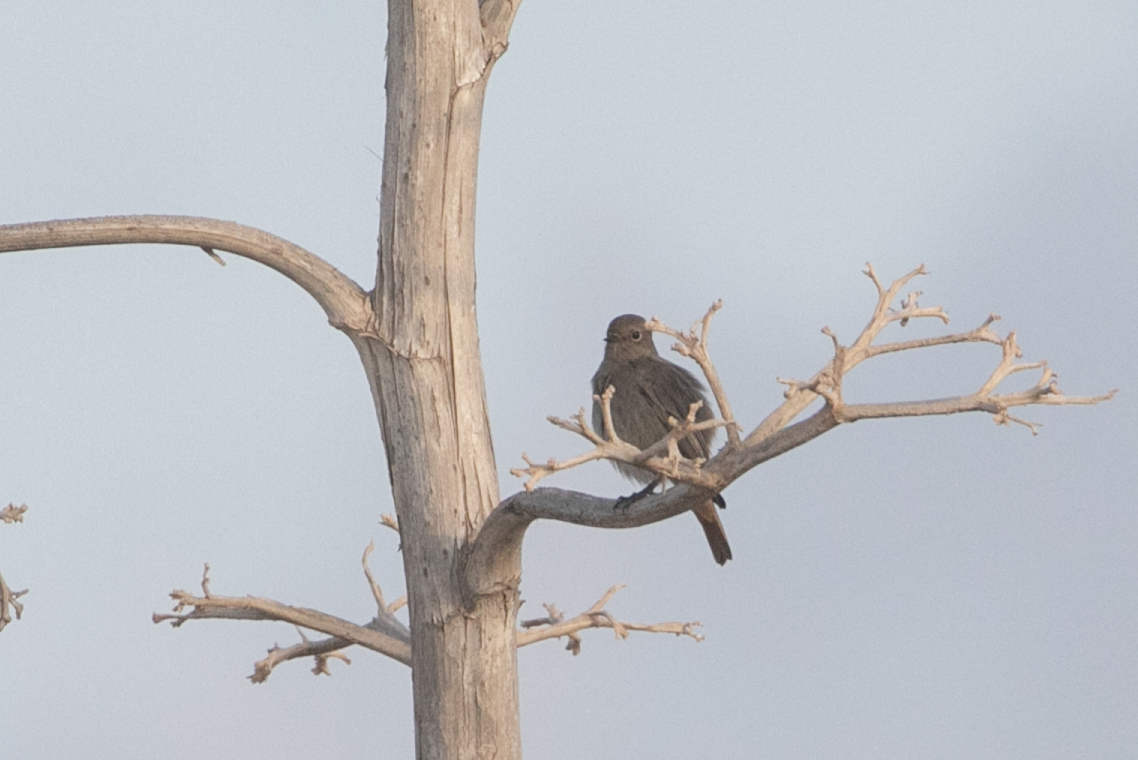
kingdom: Animalia
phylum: Chordata
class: Aves
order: Passeriformes
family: Muscicapidae
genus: Phoenicurus
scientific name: Phoenicurus ochruros
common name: Black redstart
